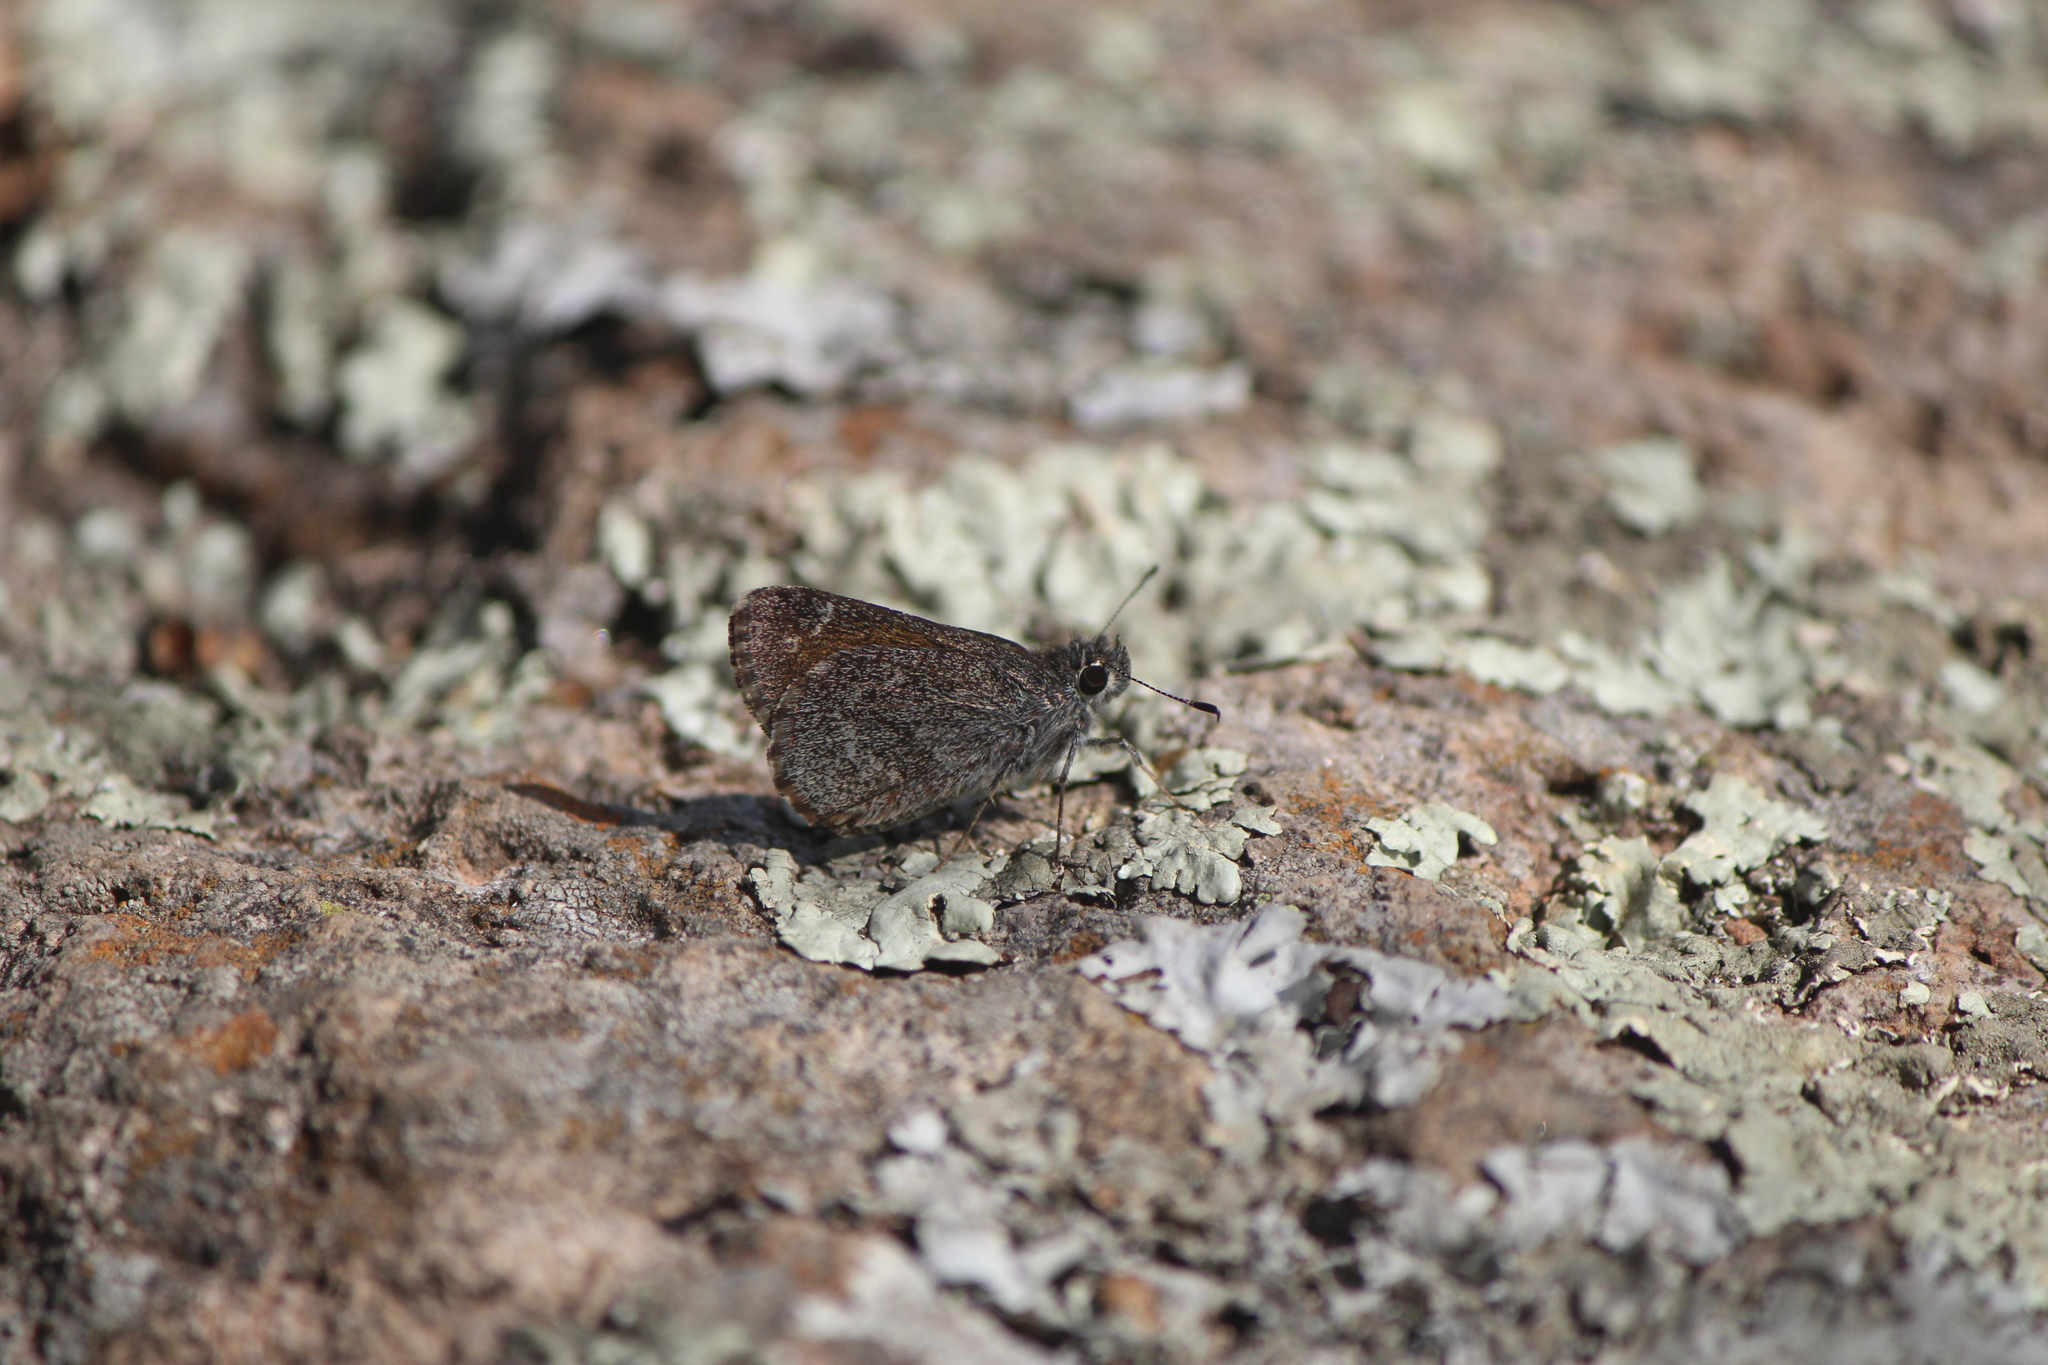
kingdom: Animalia
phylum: Arthropoda
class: Insecta
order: Lepidoptera
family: Hesperiidae
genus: Mastor
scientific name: Mastor aenus
